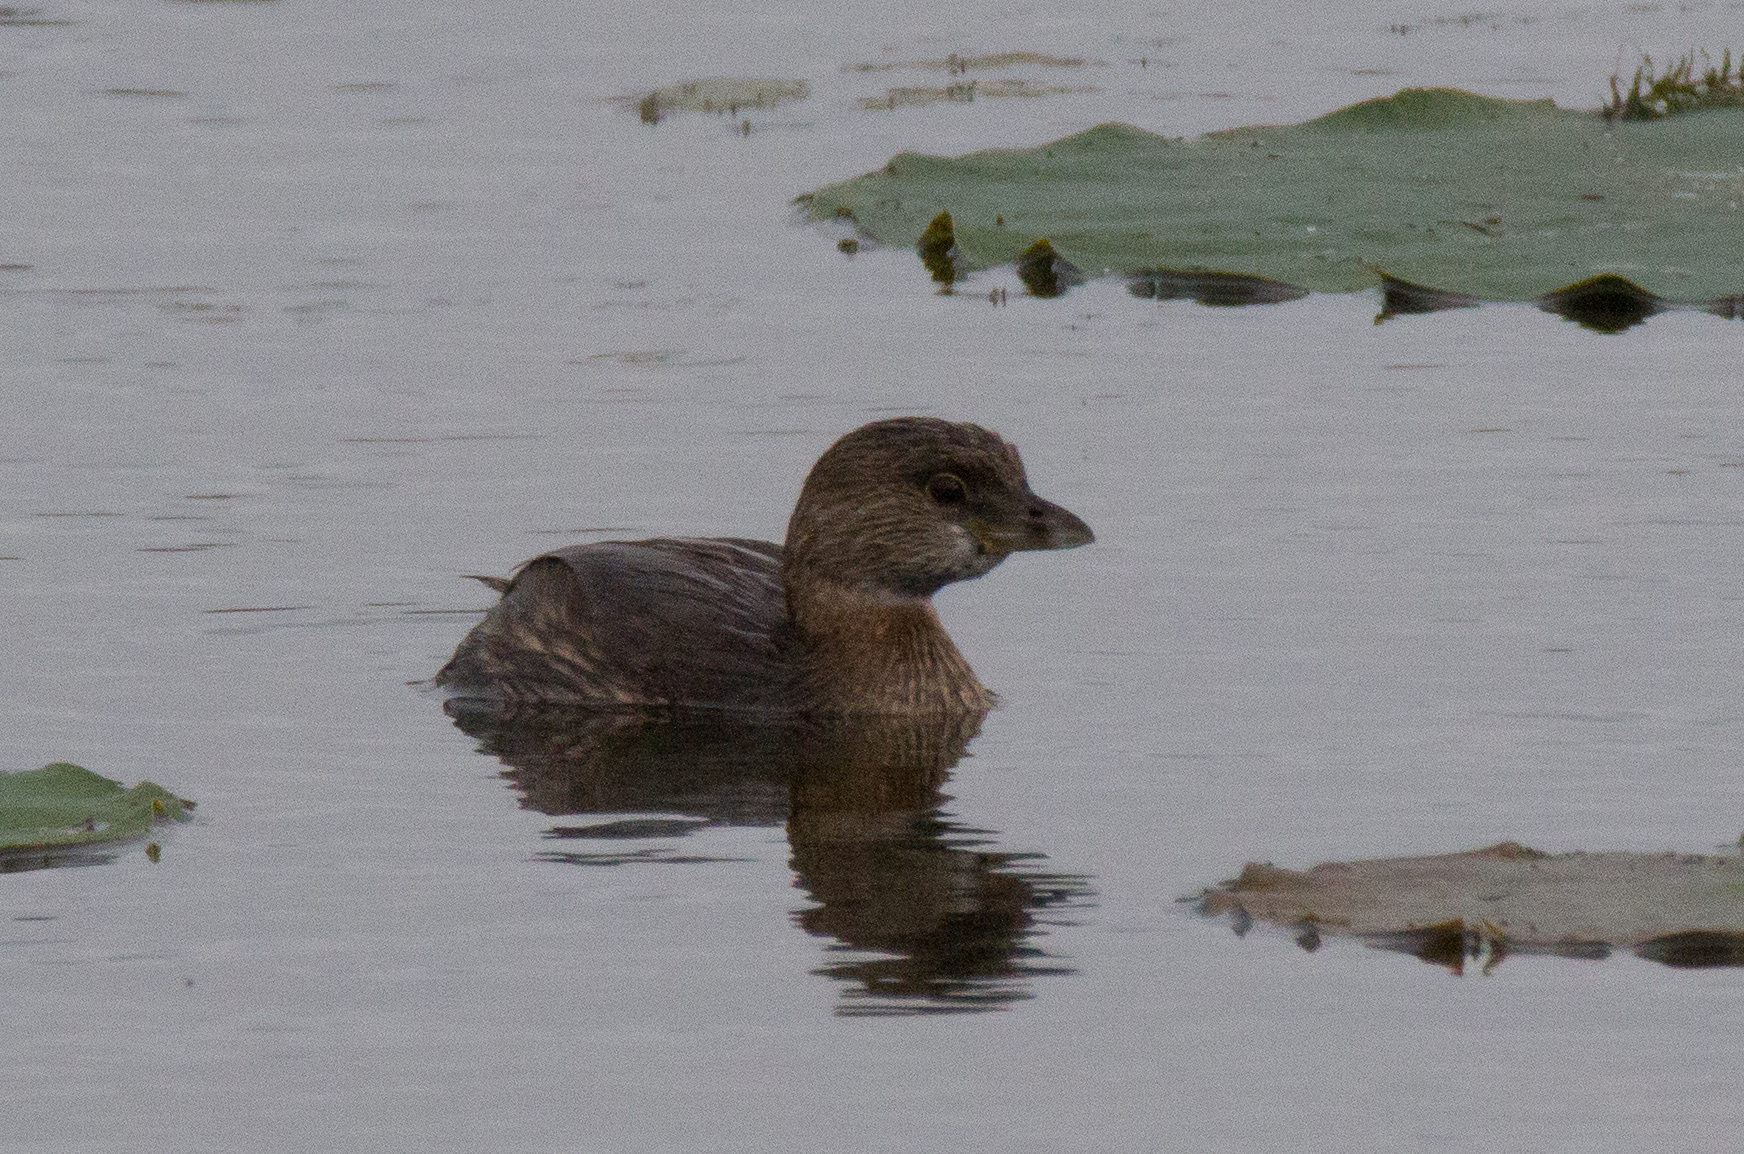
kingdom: Animalia
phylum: Chordata
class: Aves
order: Podicipediformes
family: Podicipedidae
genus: Podilymbus
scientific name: Podilymbus podiceps
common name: Pied-billed grebe
